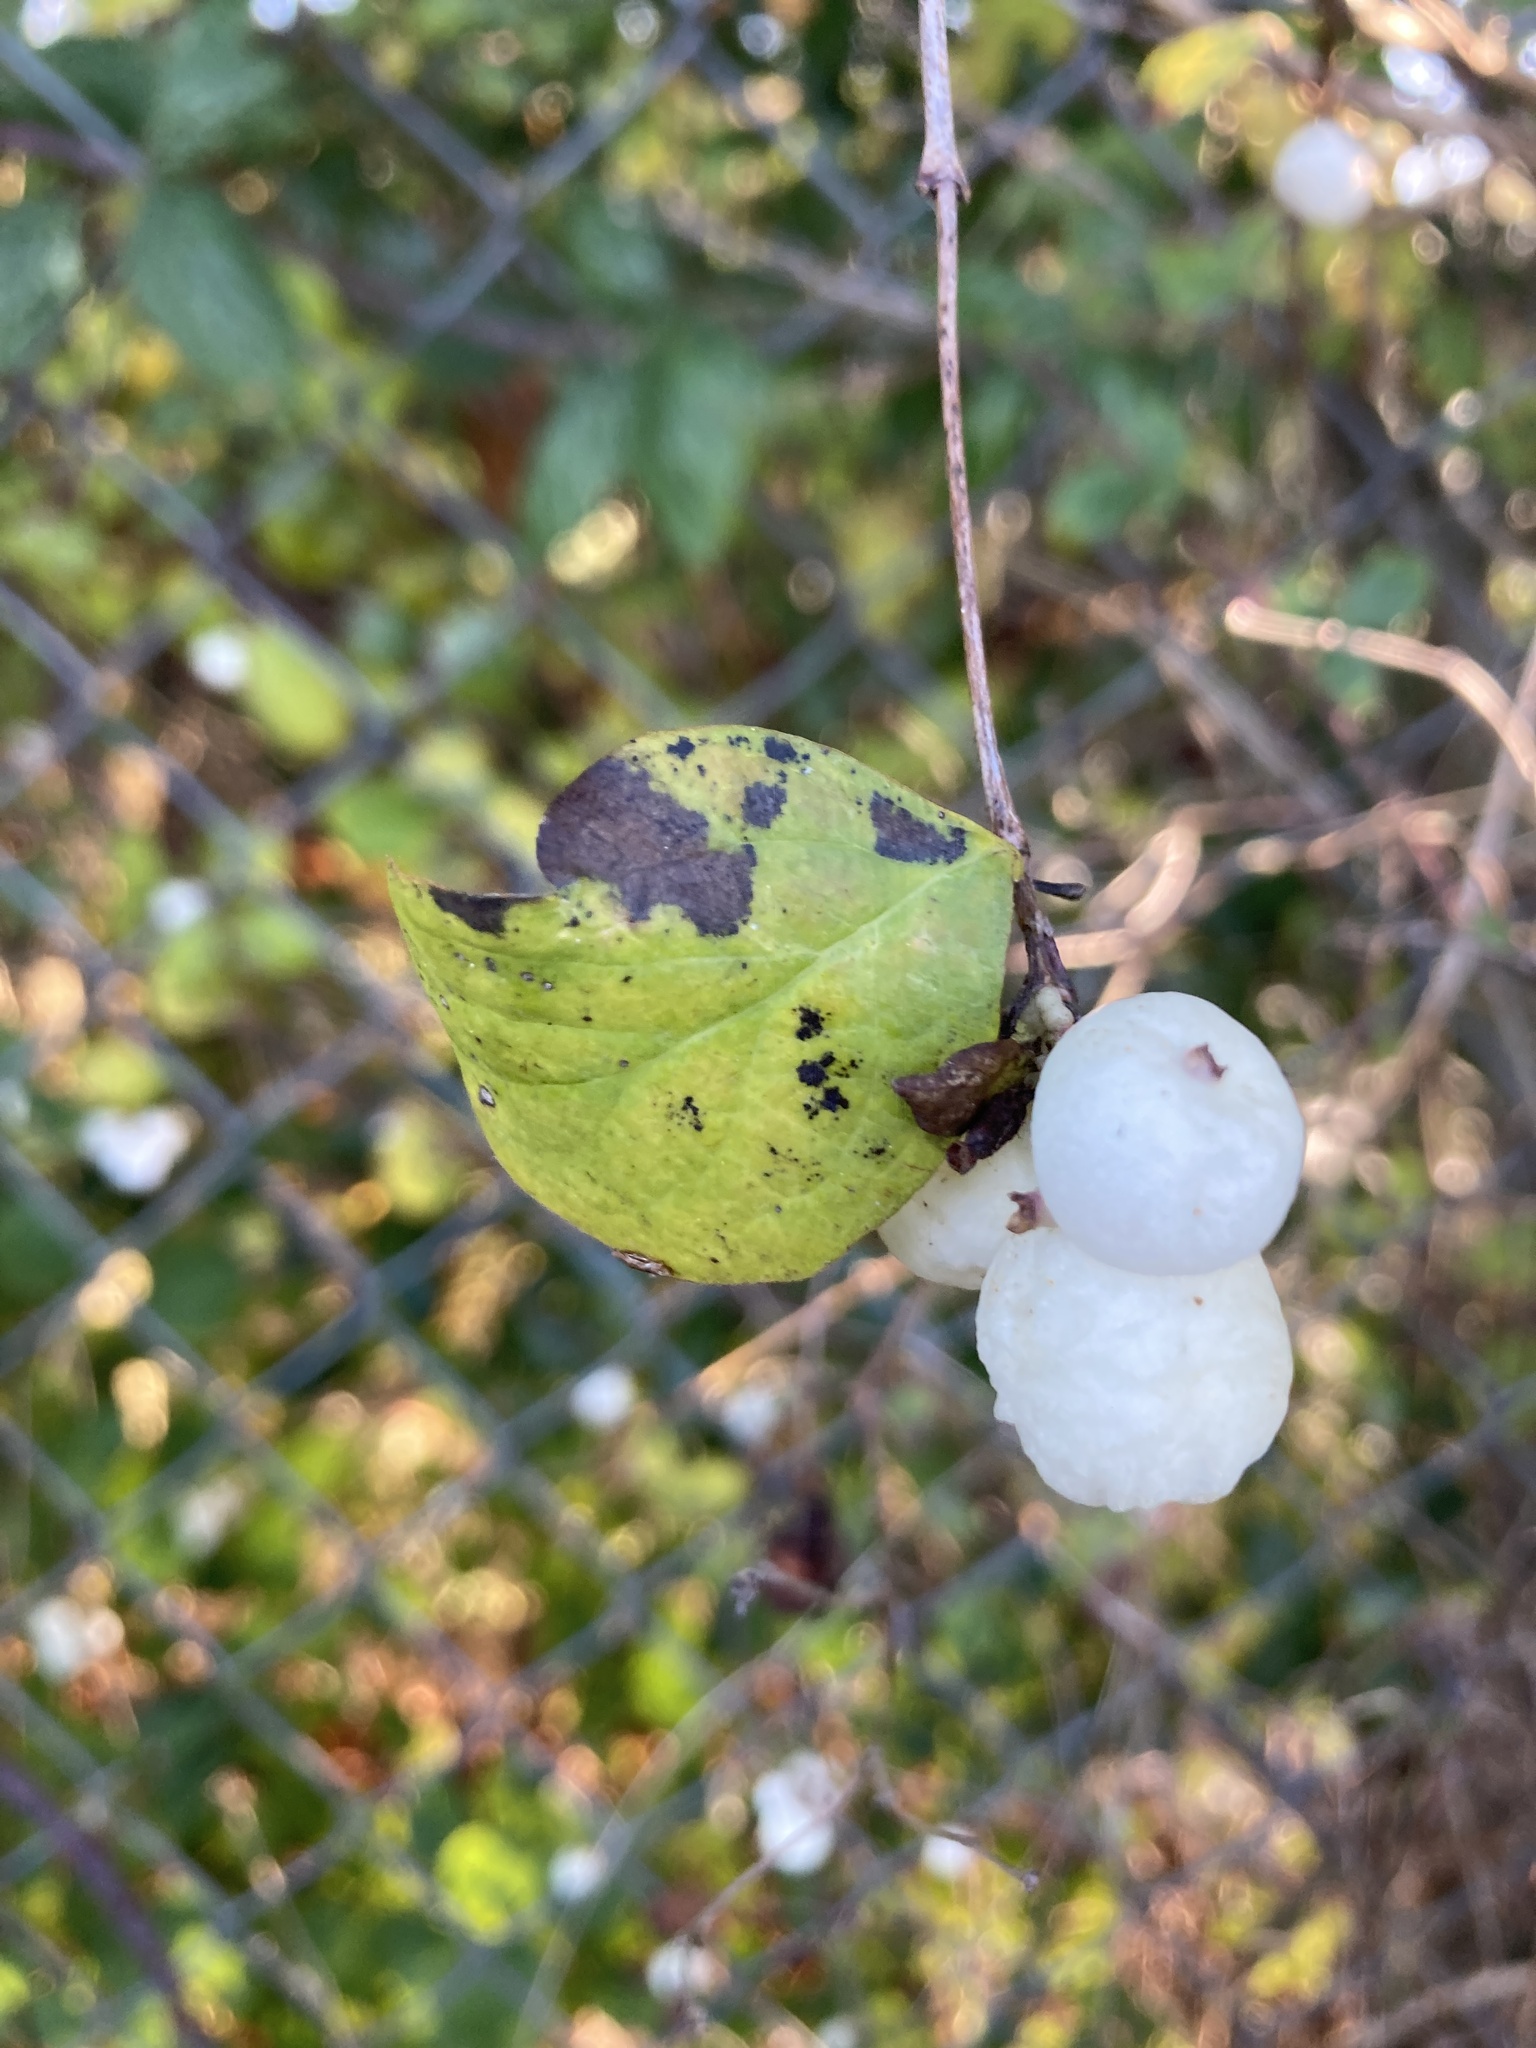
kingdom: Plantae
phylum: Tracheophyta
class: Magnoliopsida
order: Dipsacales
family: Caprifoliaceae
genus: Symphoricarpos
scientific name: Symphoricarpos albus
